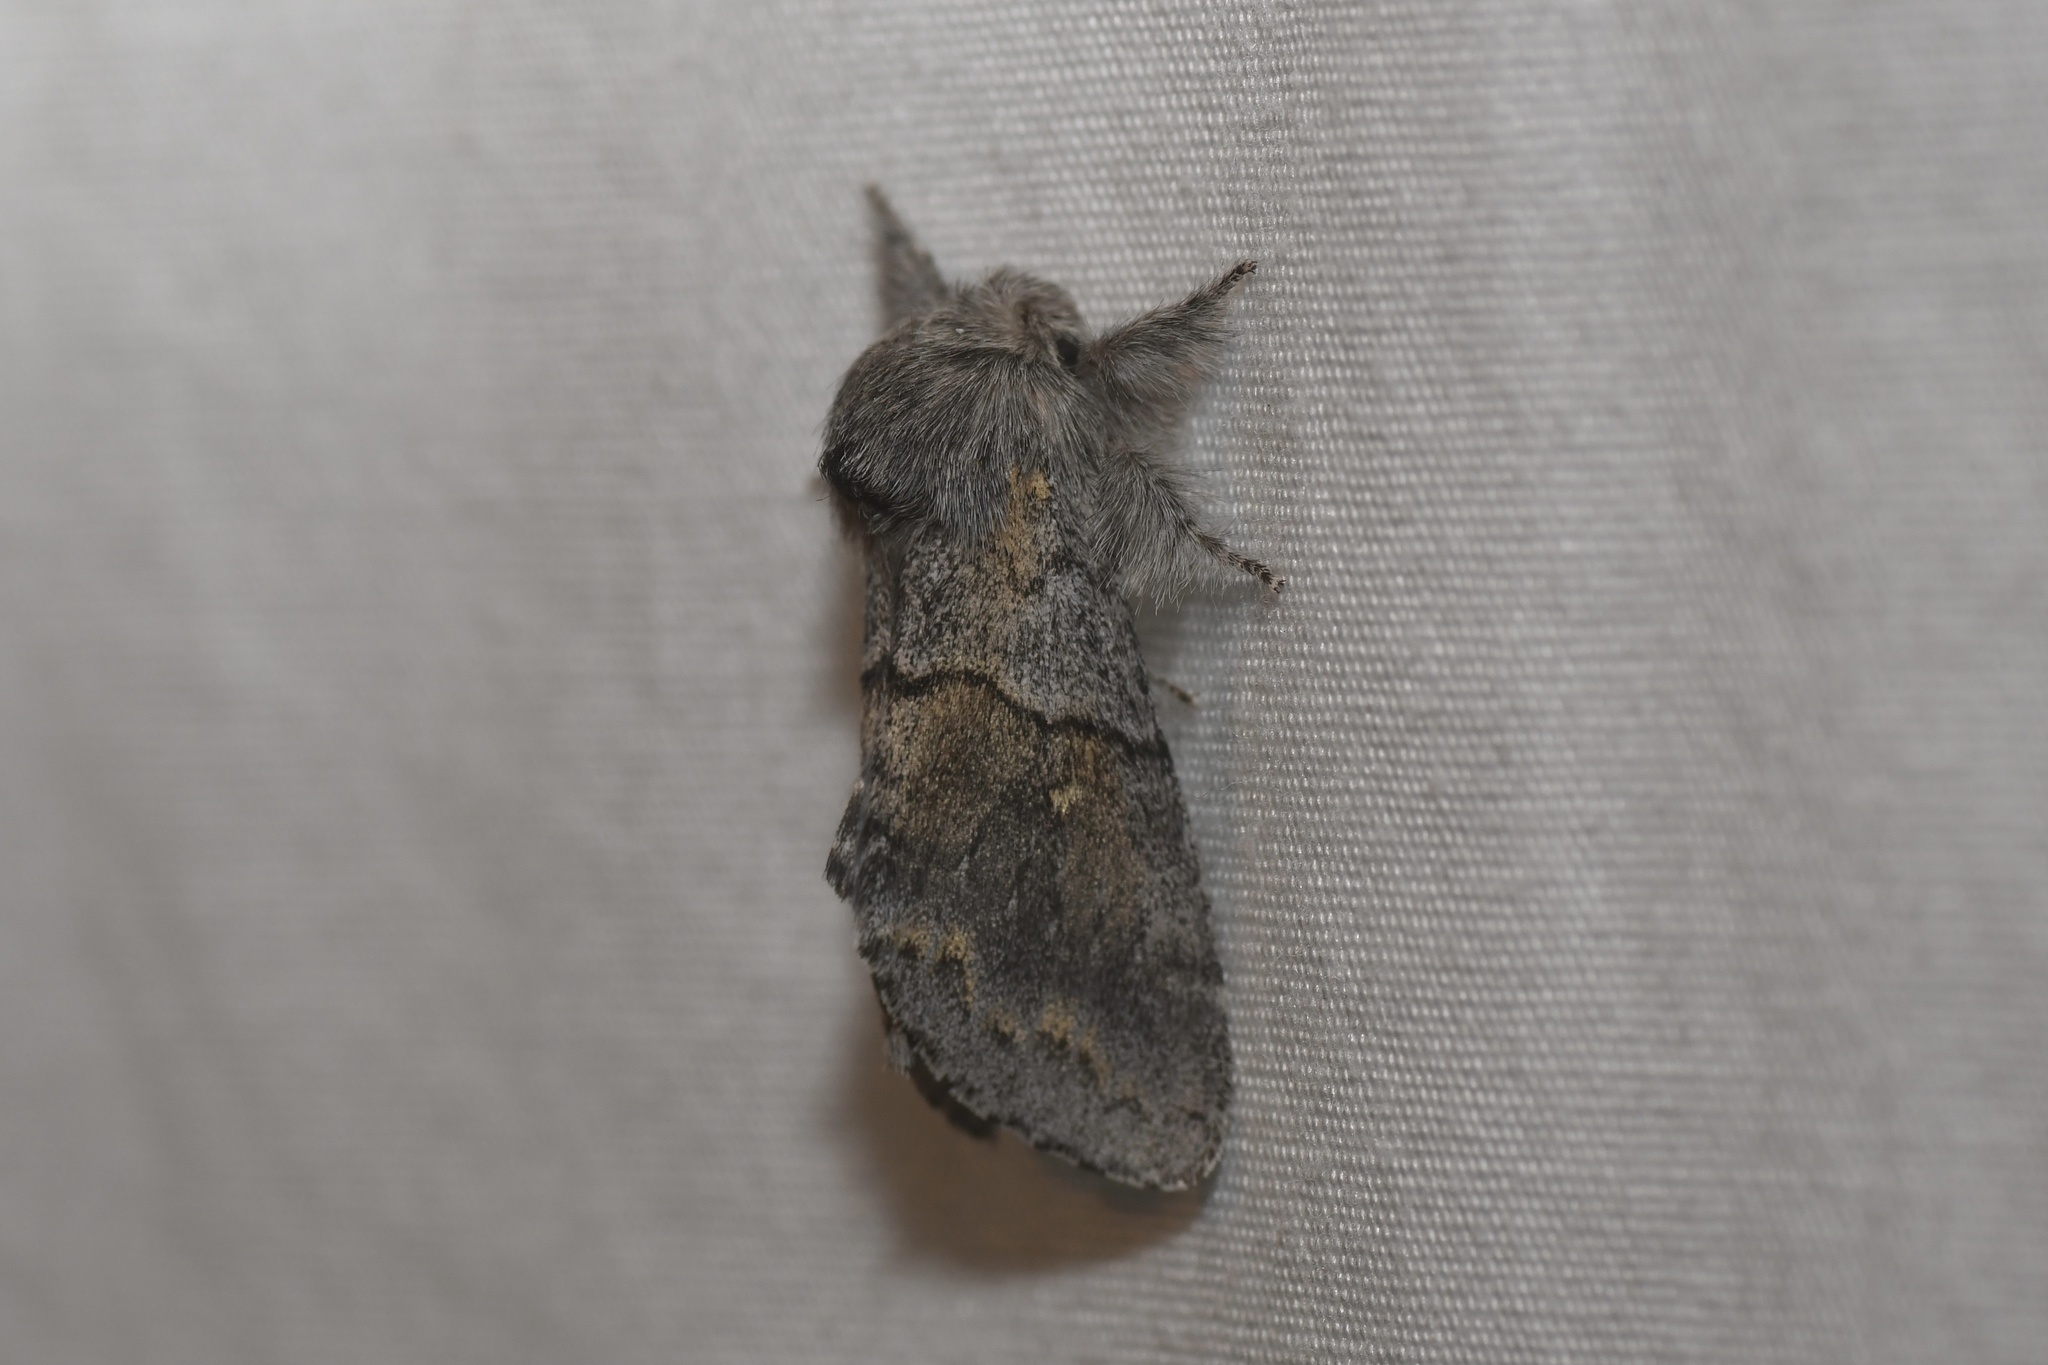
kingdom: Animalia
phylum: Arthropoda
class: Insecta
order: Lepidoptera
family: Notodontidae
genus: Gluphisia
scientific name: Gluphisia lintneri
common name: Lintner's gluphisia moth
